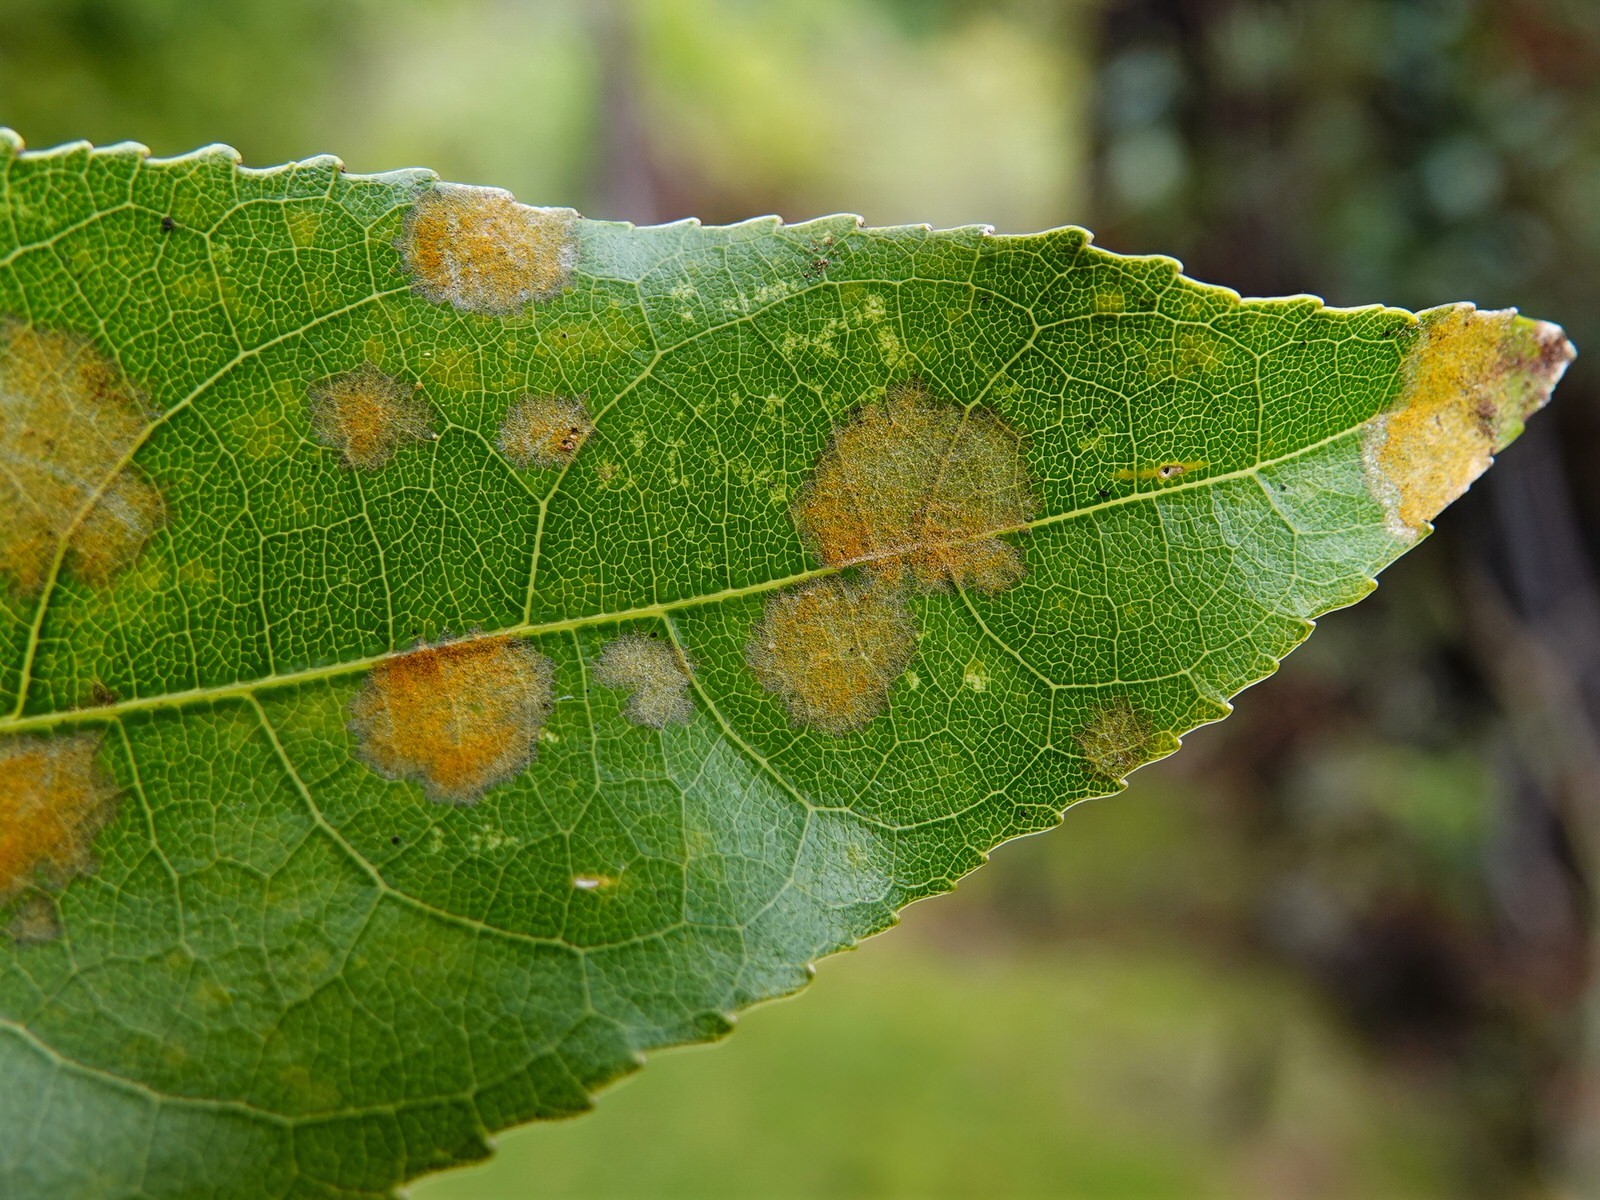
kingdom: Plantae
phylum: Chlorophyta
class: Ulvophyceae
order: Trentepohliales
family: Trentepohliaceae
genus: Cephaleuros
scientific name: Cephaleuros
